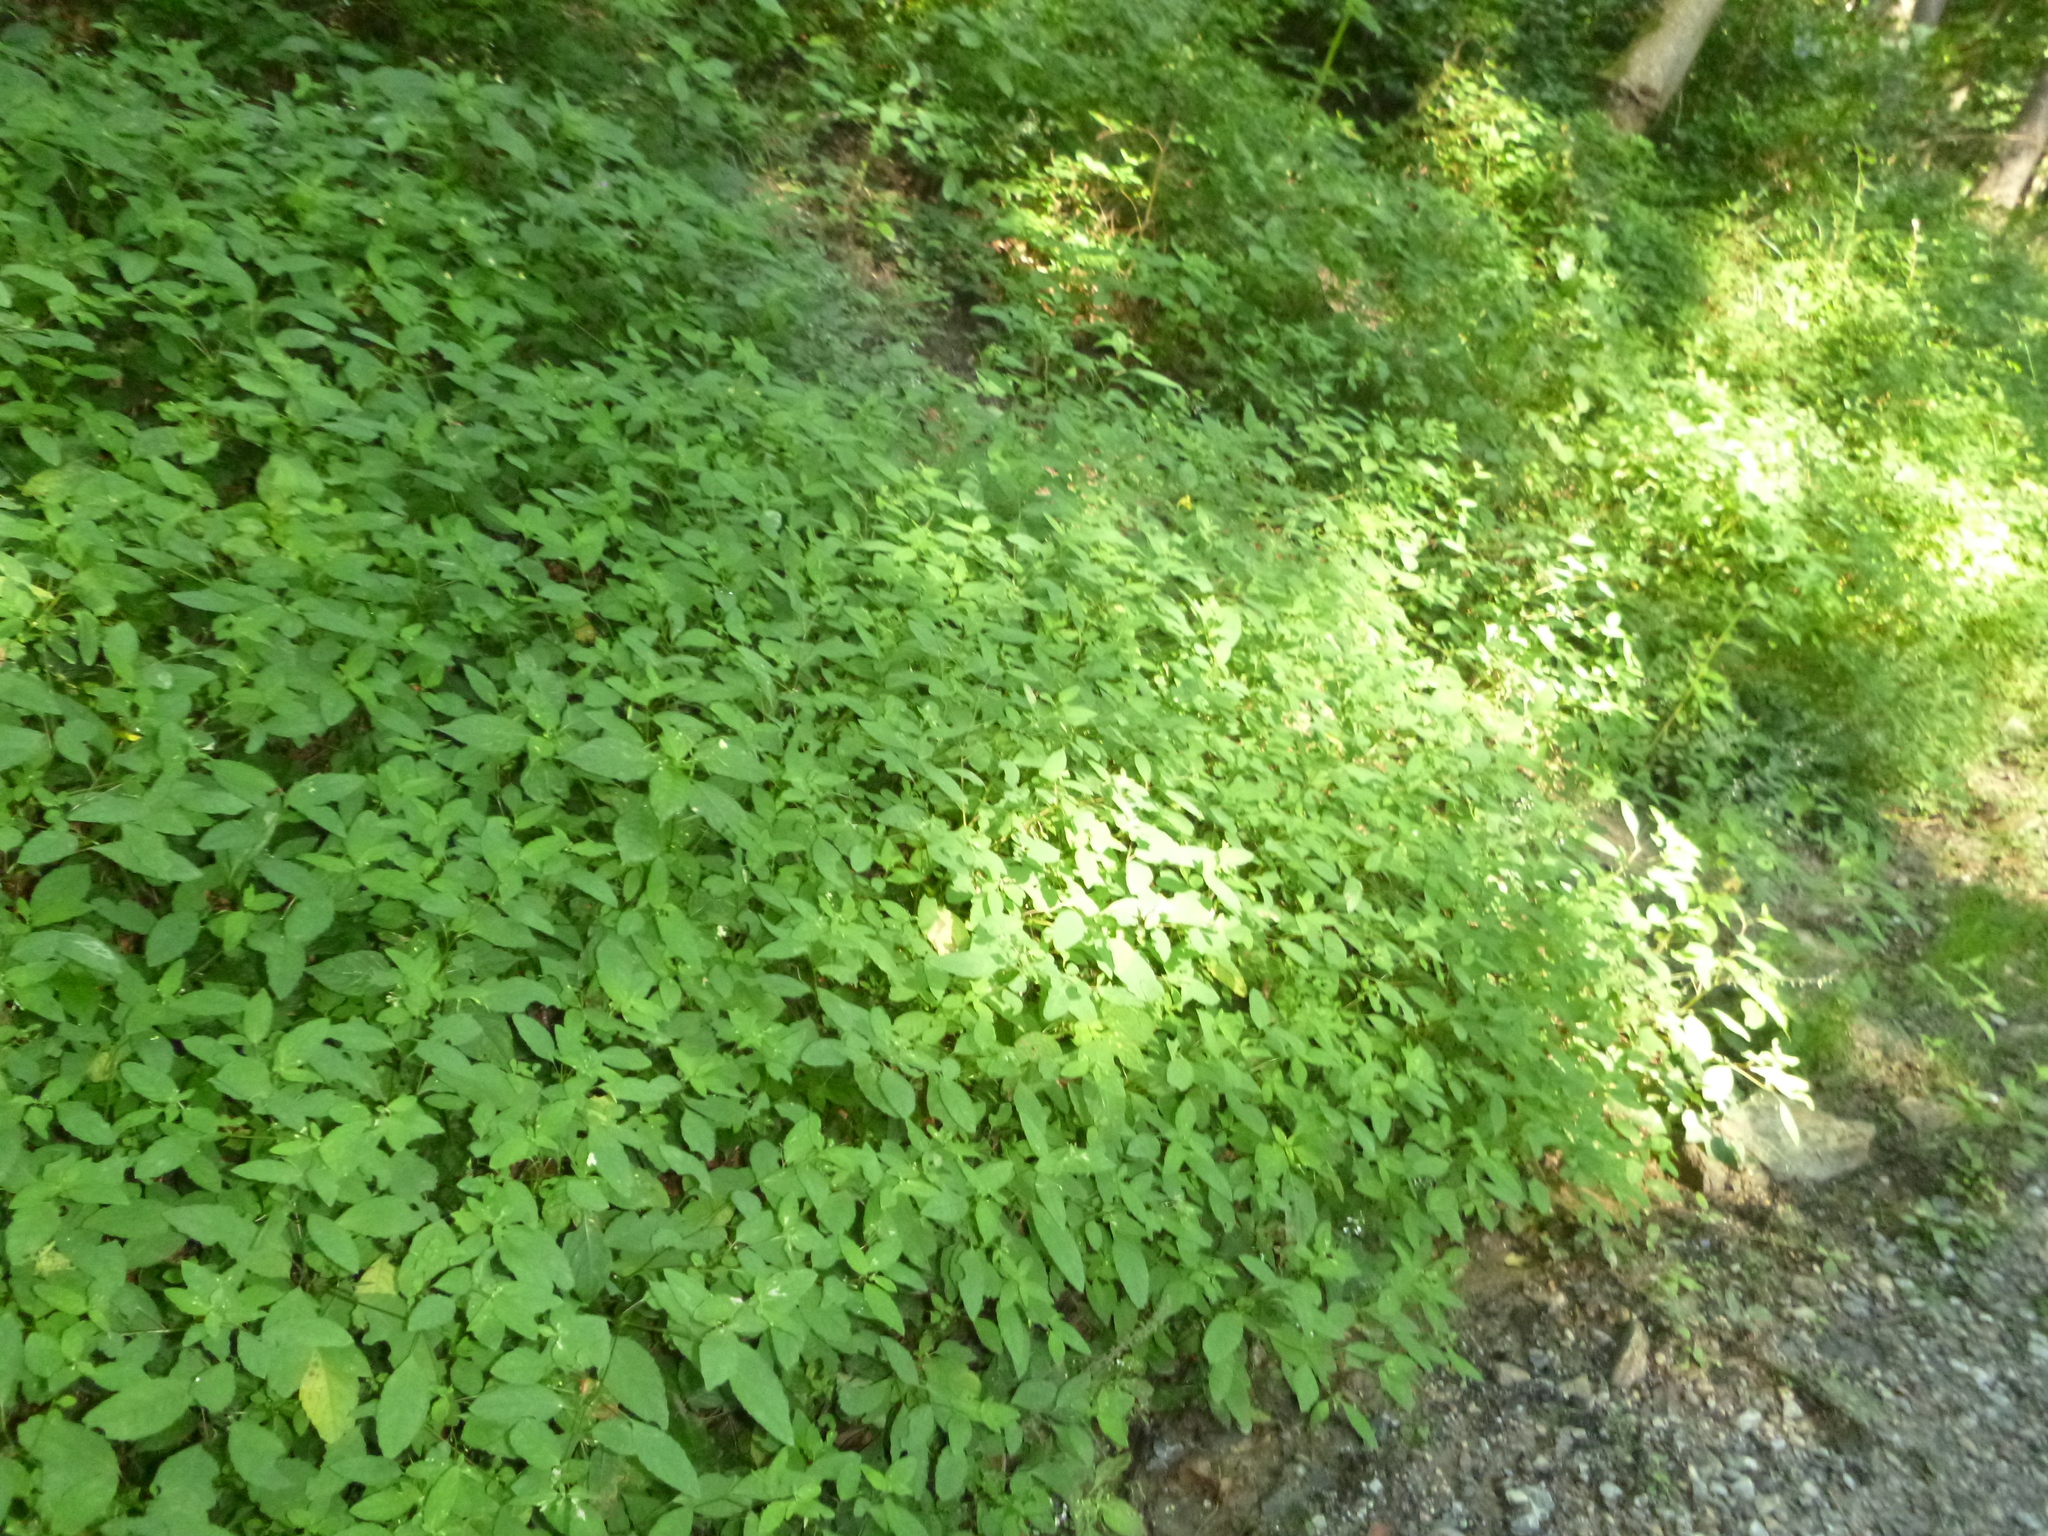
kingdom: Plantae
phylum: Tracheophyta
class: Magnoliopsida
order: Ericales
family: Balsaminaceae
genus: Impatiens
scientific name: Impatiens noli-tangere
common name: Touch-me-not balsam
